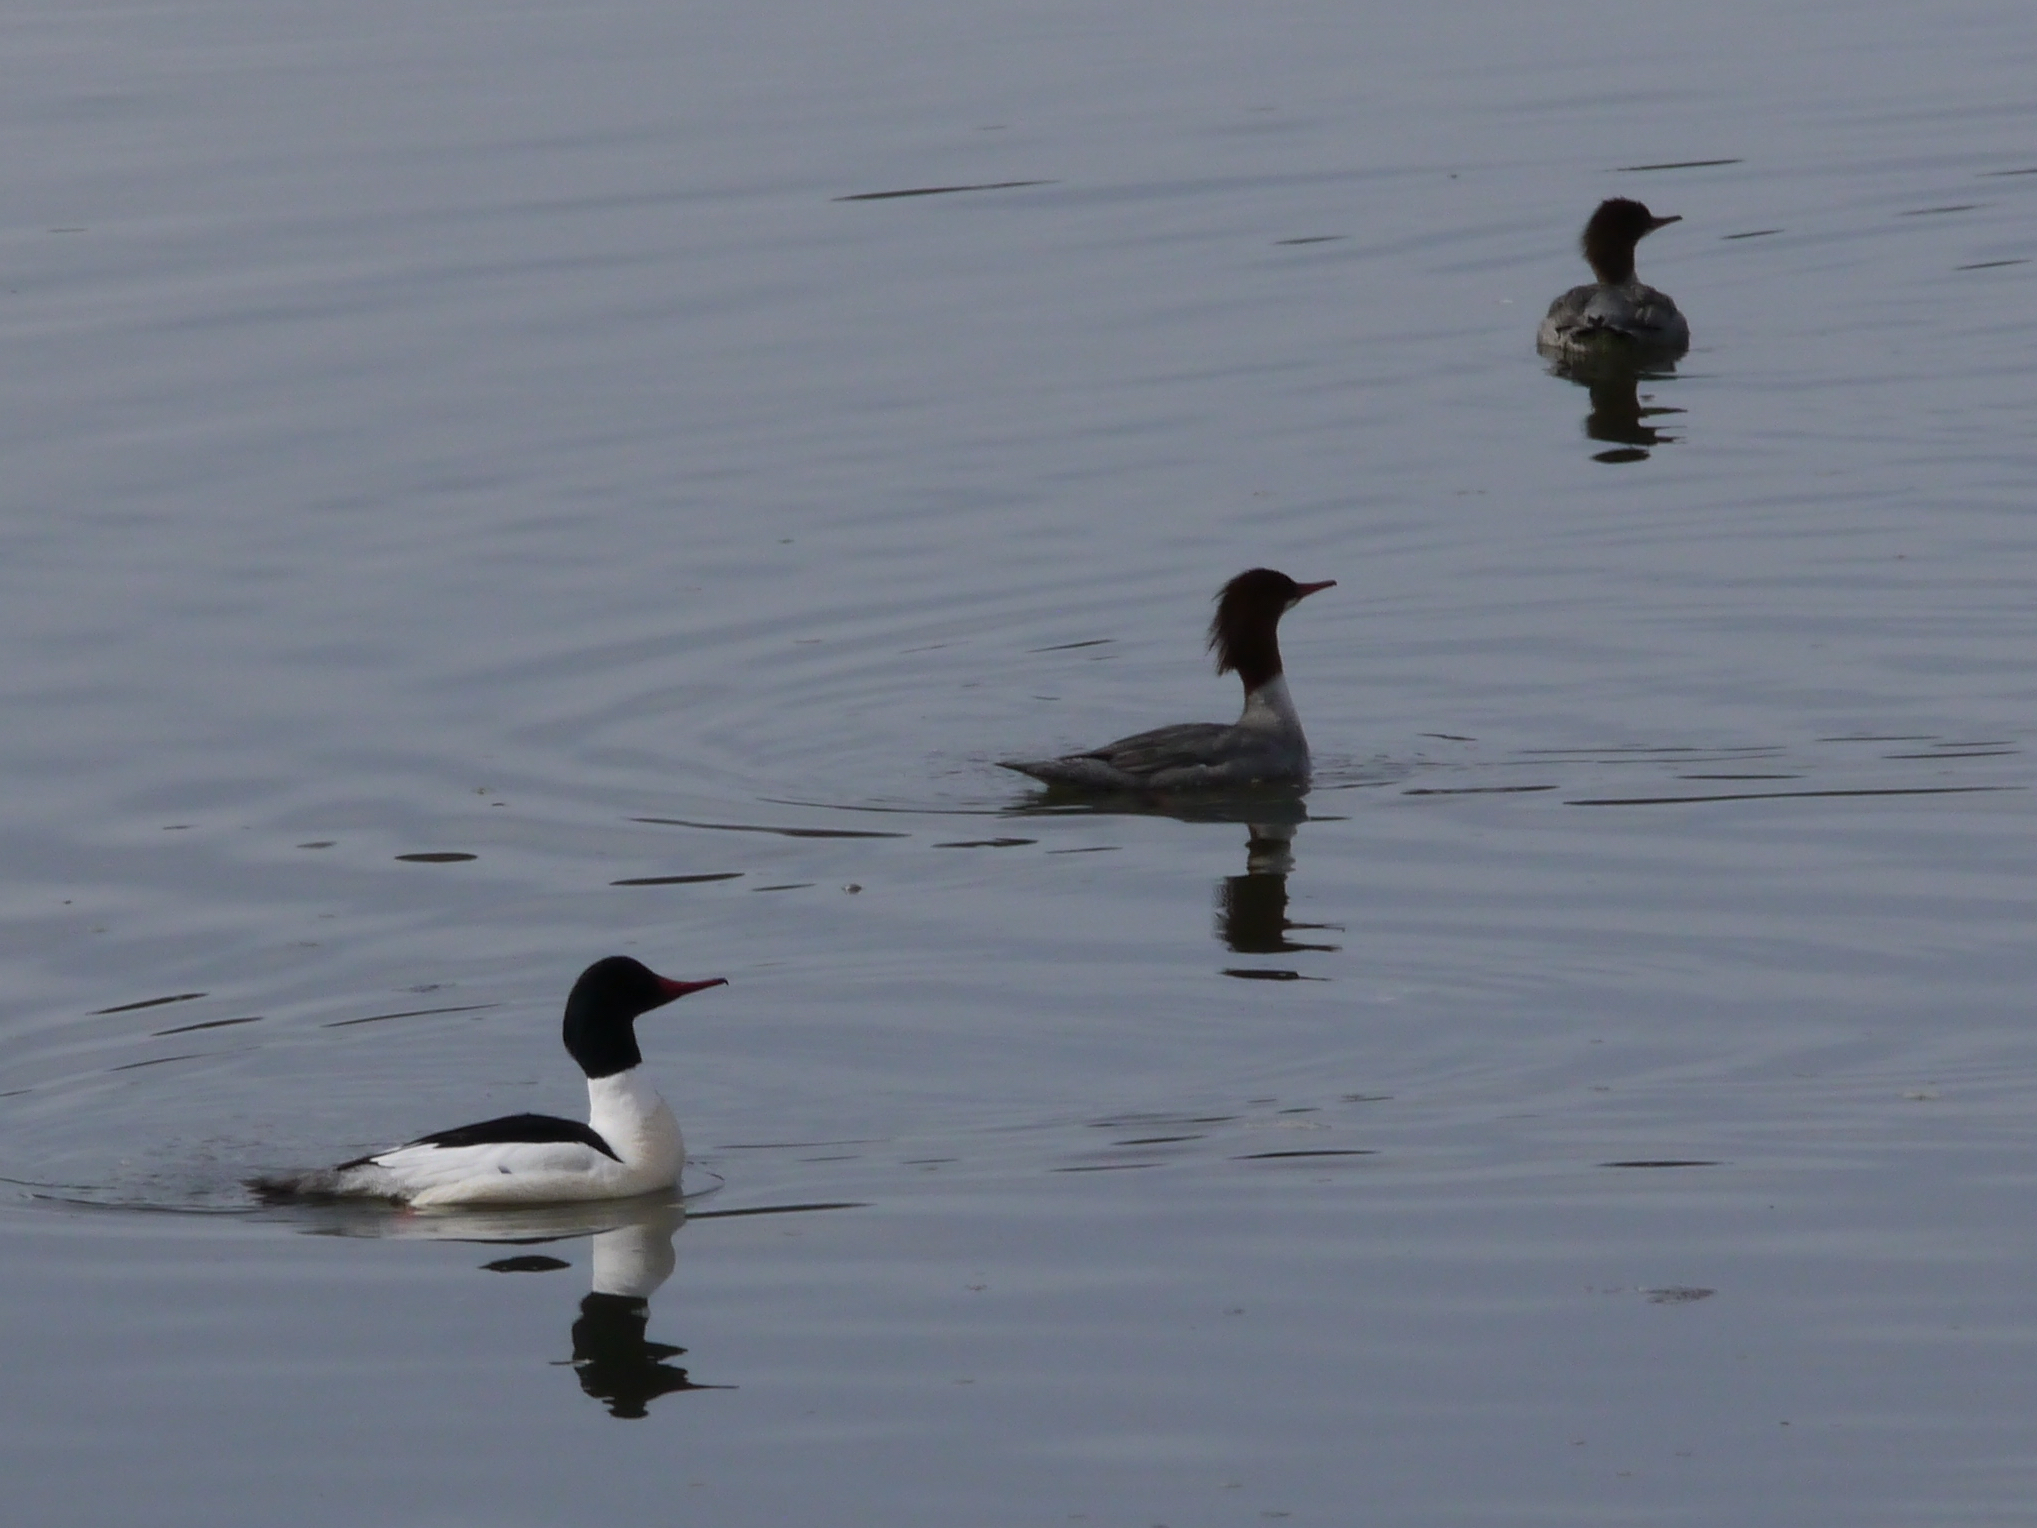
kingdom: Animalia
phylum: Chordata
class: Aves
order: Anseriformes
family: Anatidae
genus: Mergus
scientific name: Mergus merganser
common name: Common merganser
